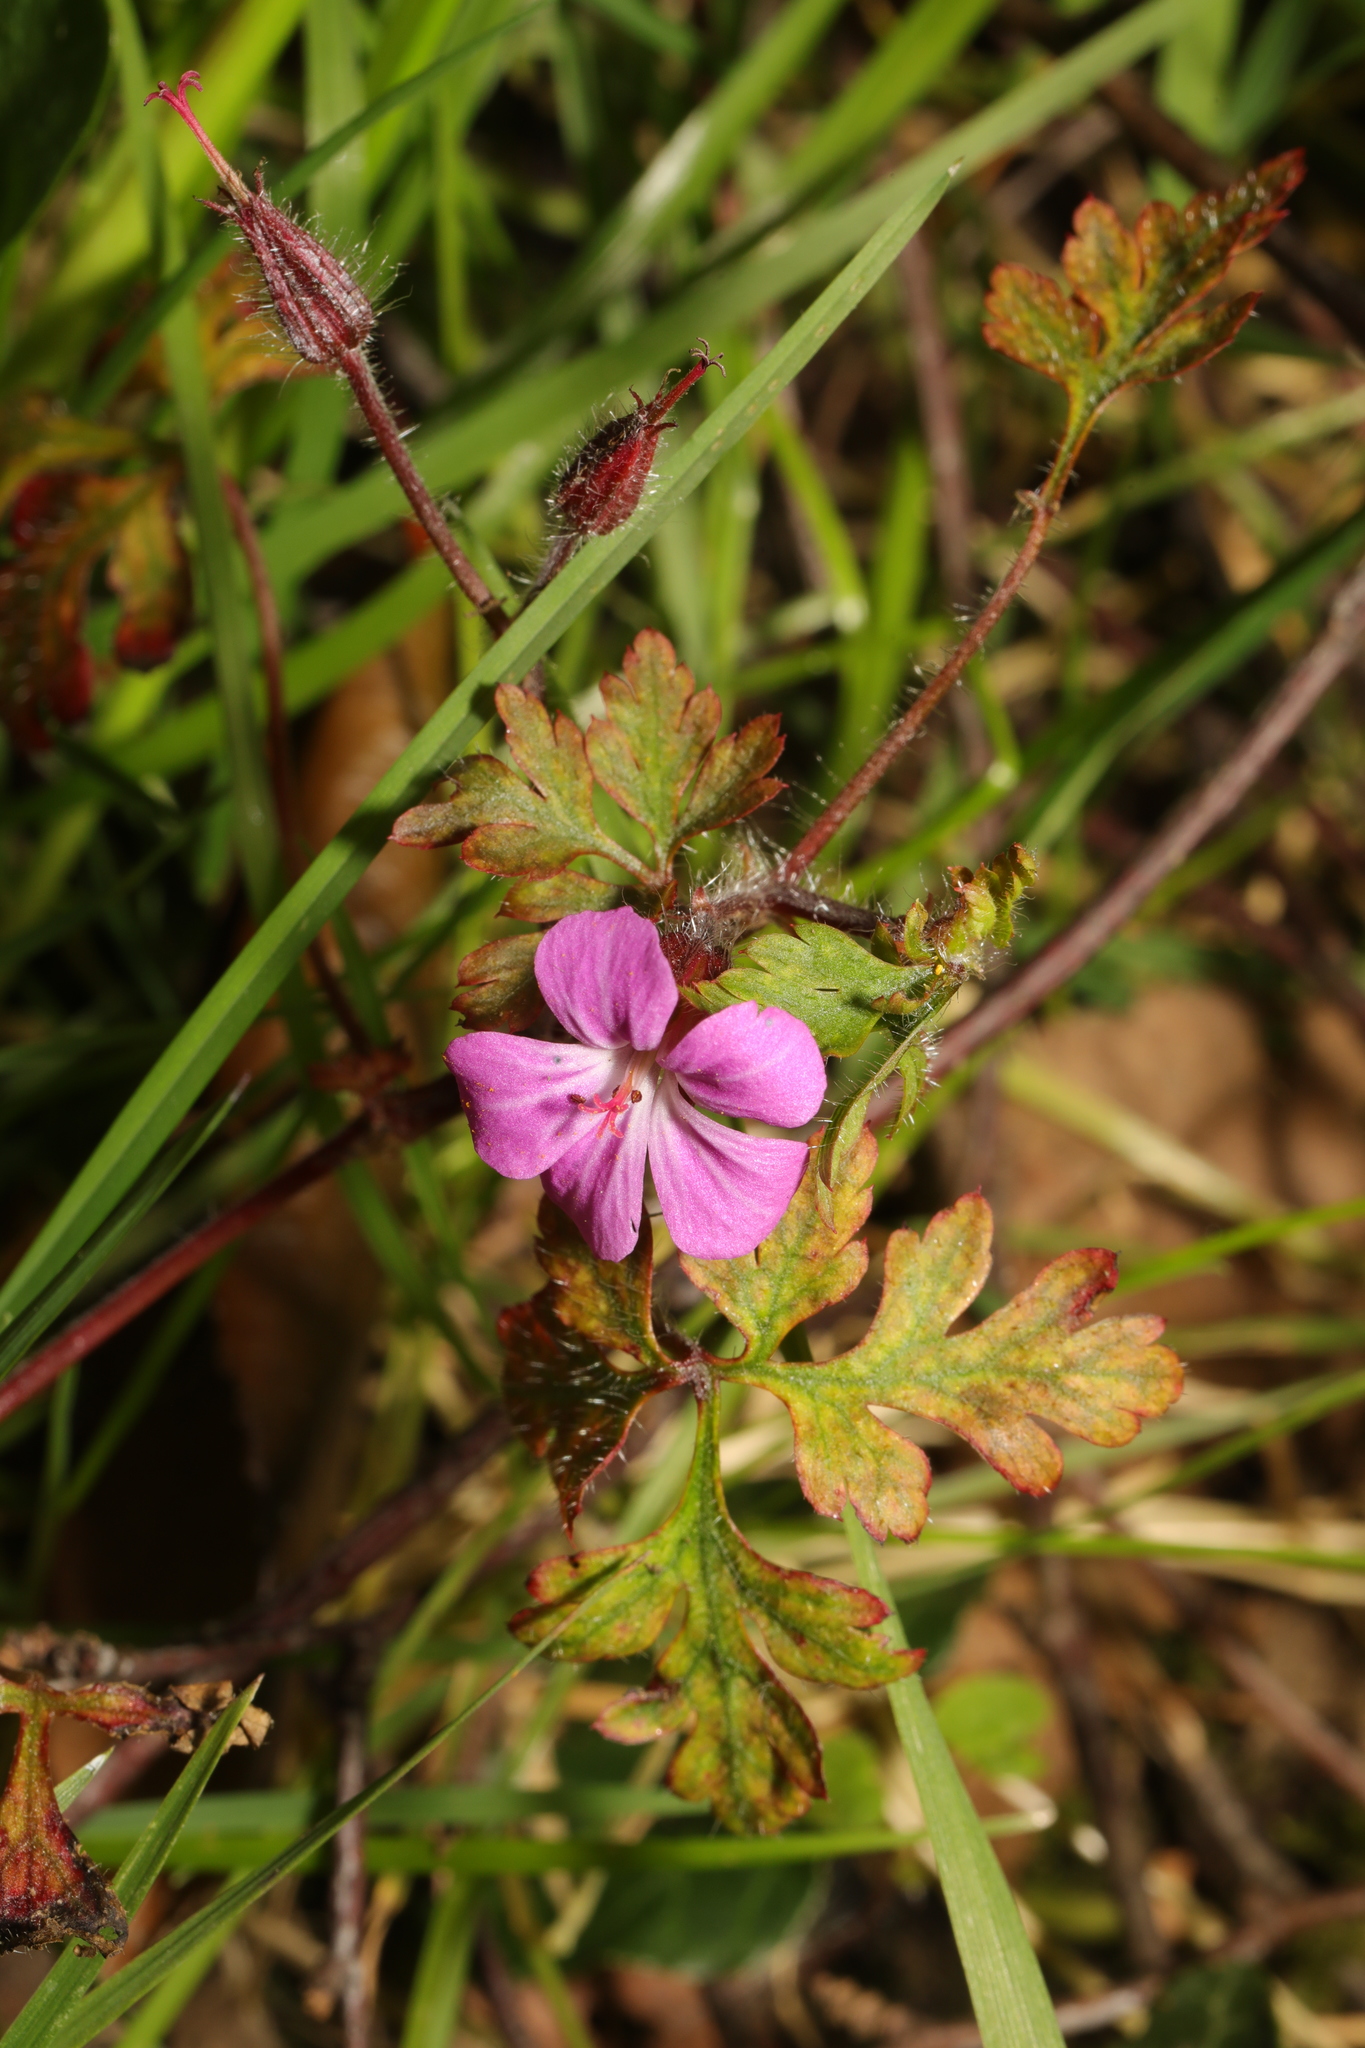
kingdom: Plantae
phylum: Tracheophyta
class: Magnoliopsida
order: Geraniales
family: Geraniaceae
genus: Geranium
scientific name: Geranium robertianum
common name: Herb-robert
